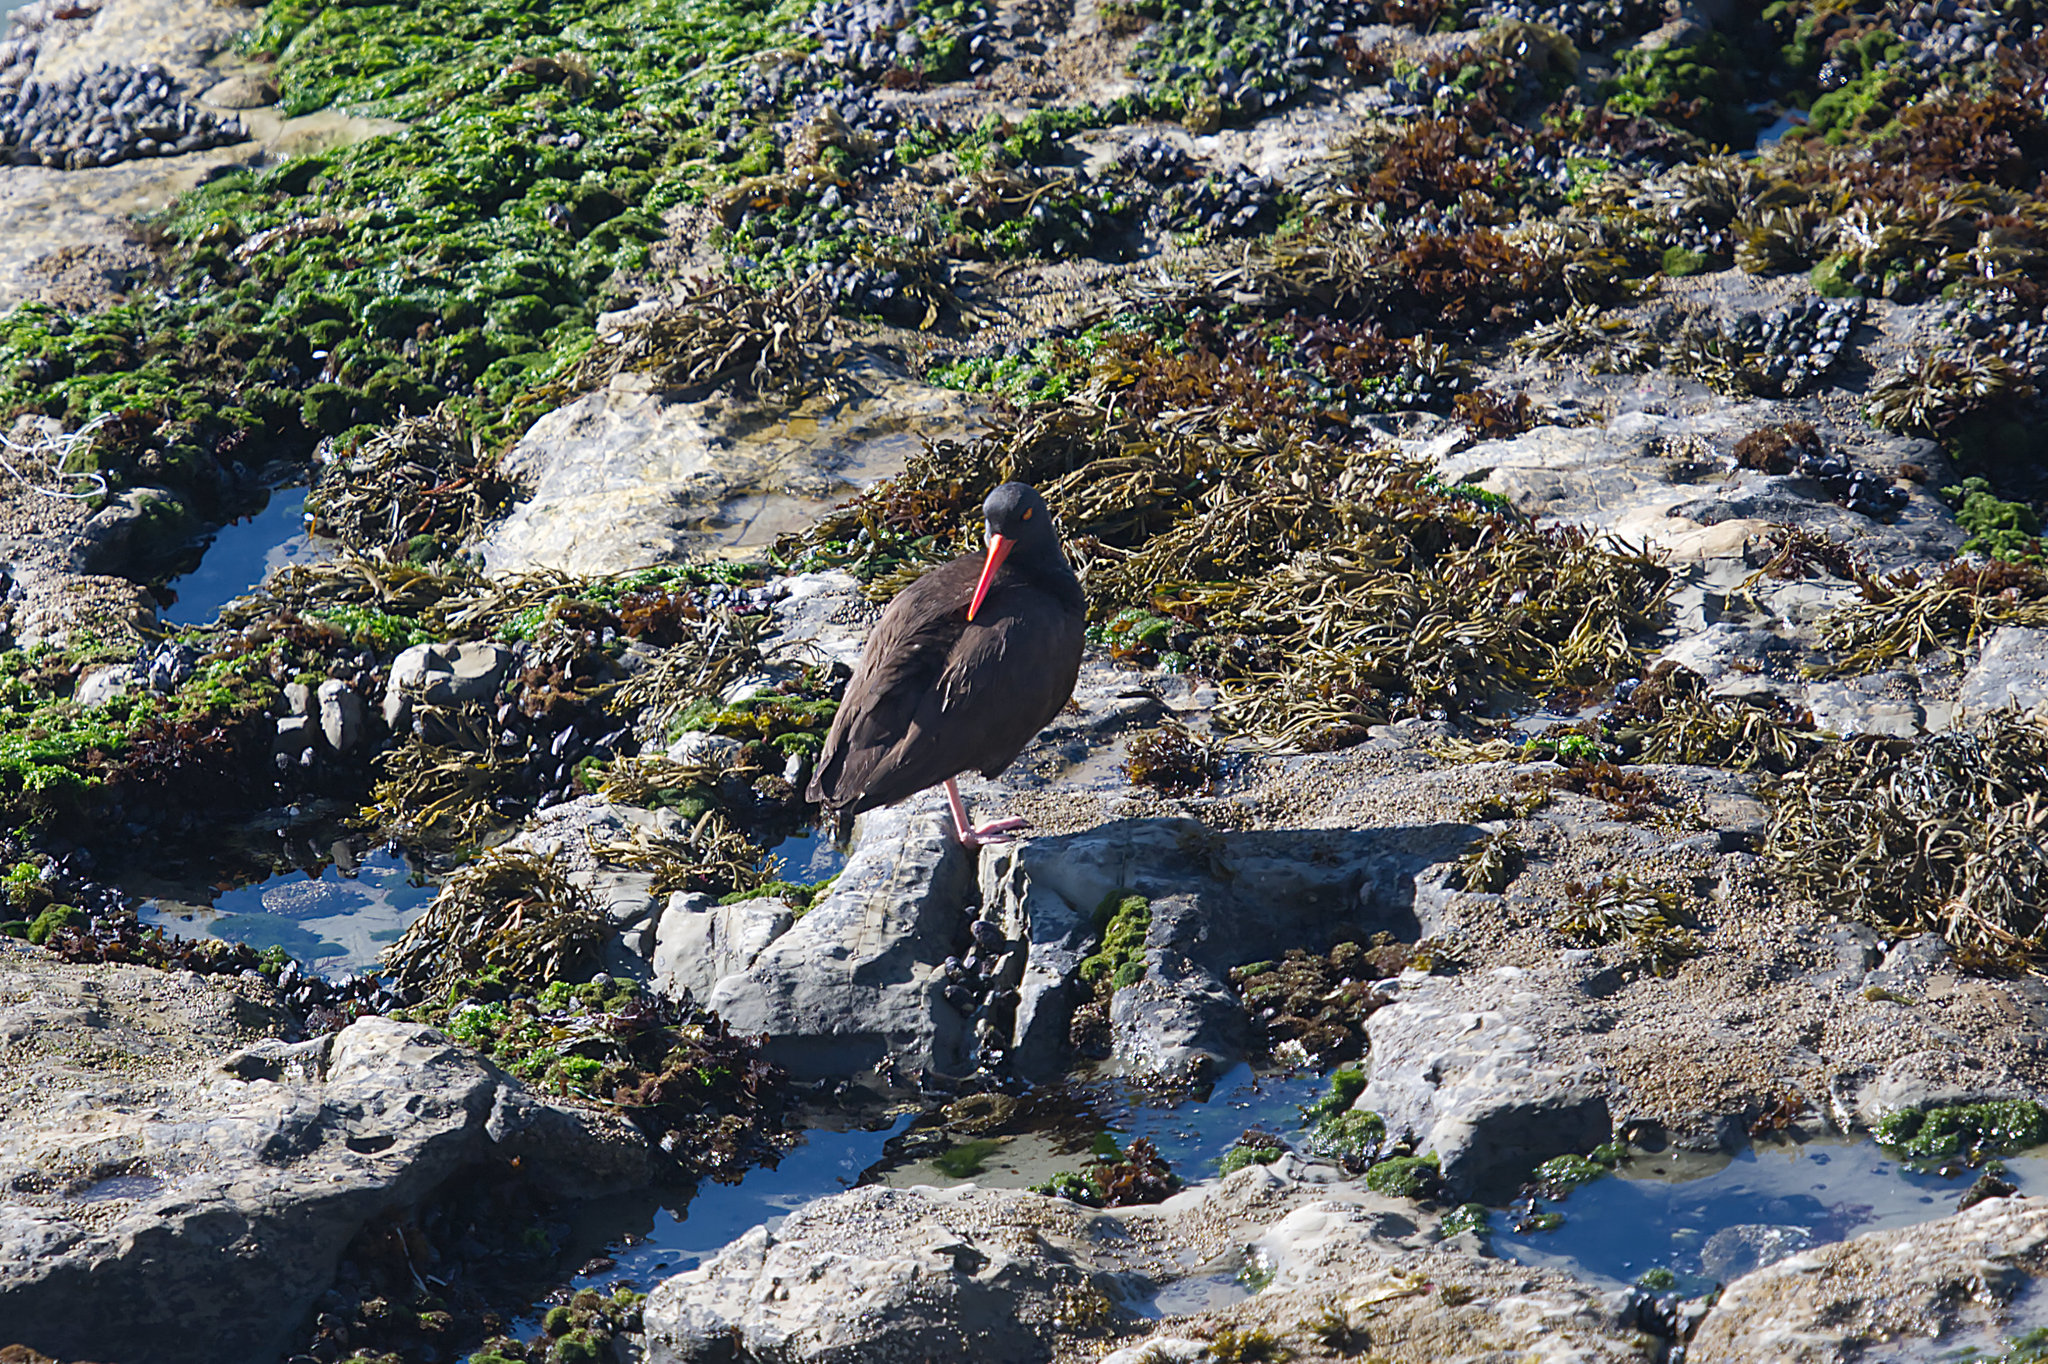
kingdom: Animalia
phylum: Chordata
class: Aves
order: Charadriiformes
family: Haematopodidae
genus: Haematopus
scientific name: Haematopus bachmani
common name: Black oystercatcher
